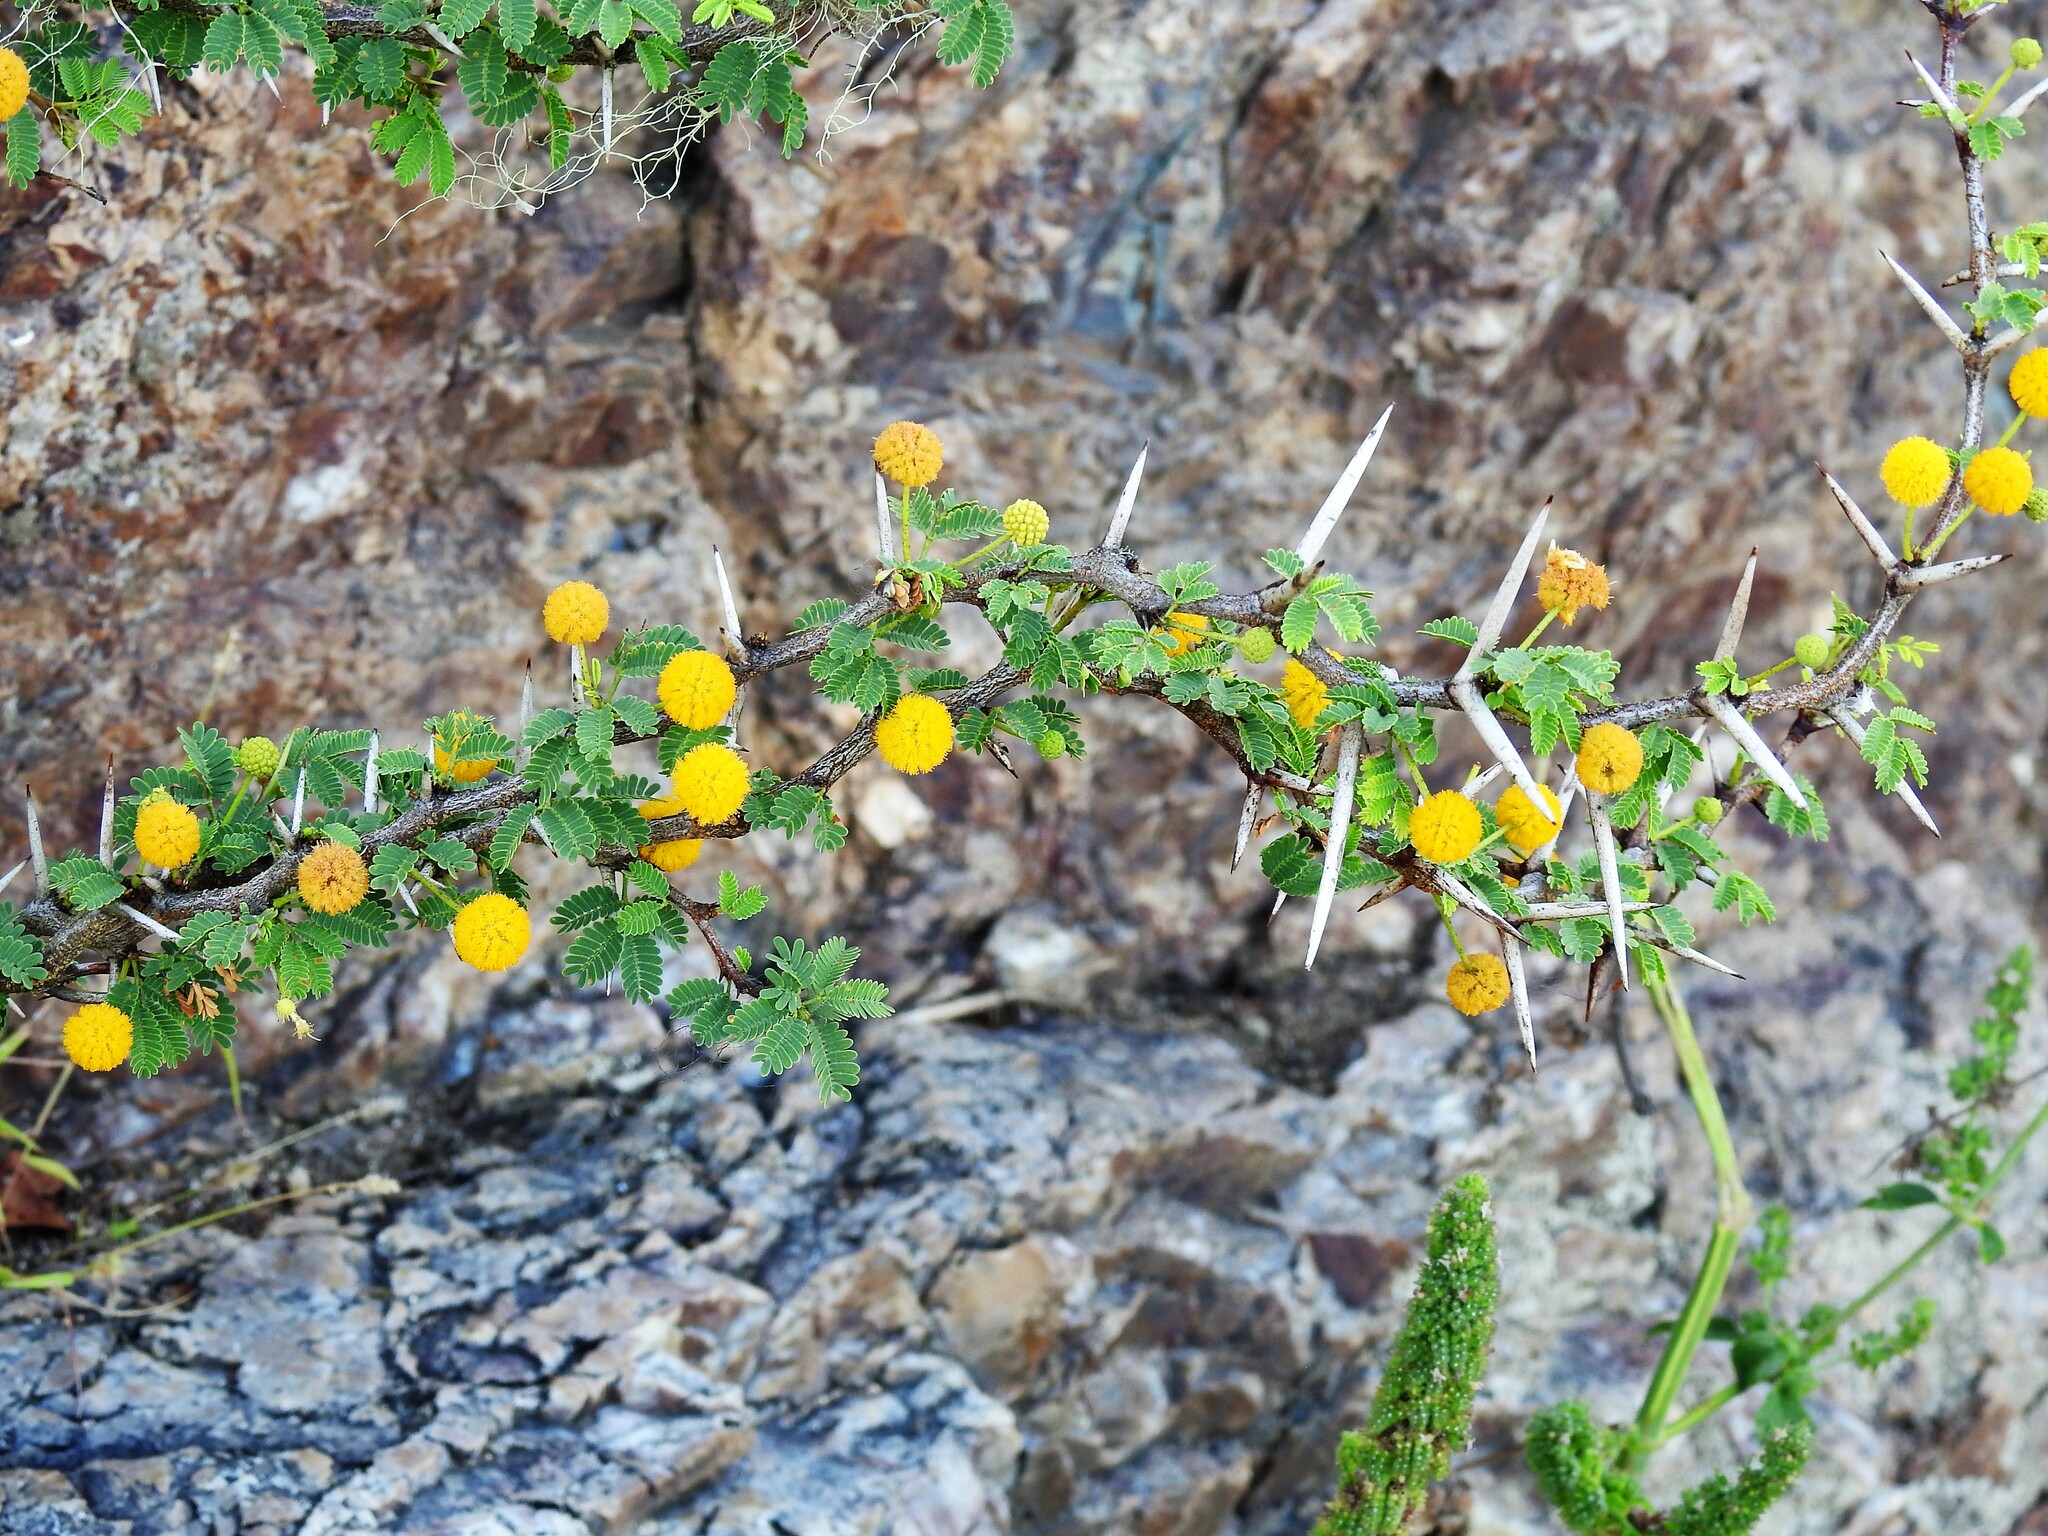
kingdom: Plantae
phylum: Tracheophyta
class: Magnoliopsida
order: Fabales
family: Fabaceae
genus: Vachellia
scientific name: Vachellia tortuosa
